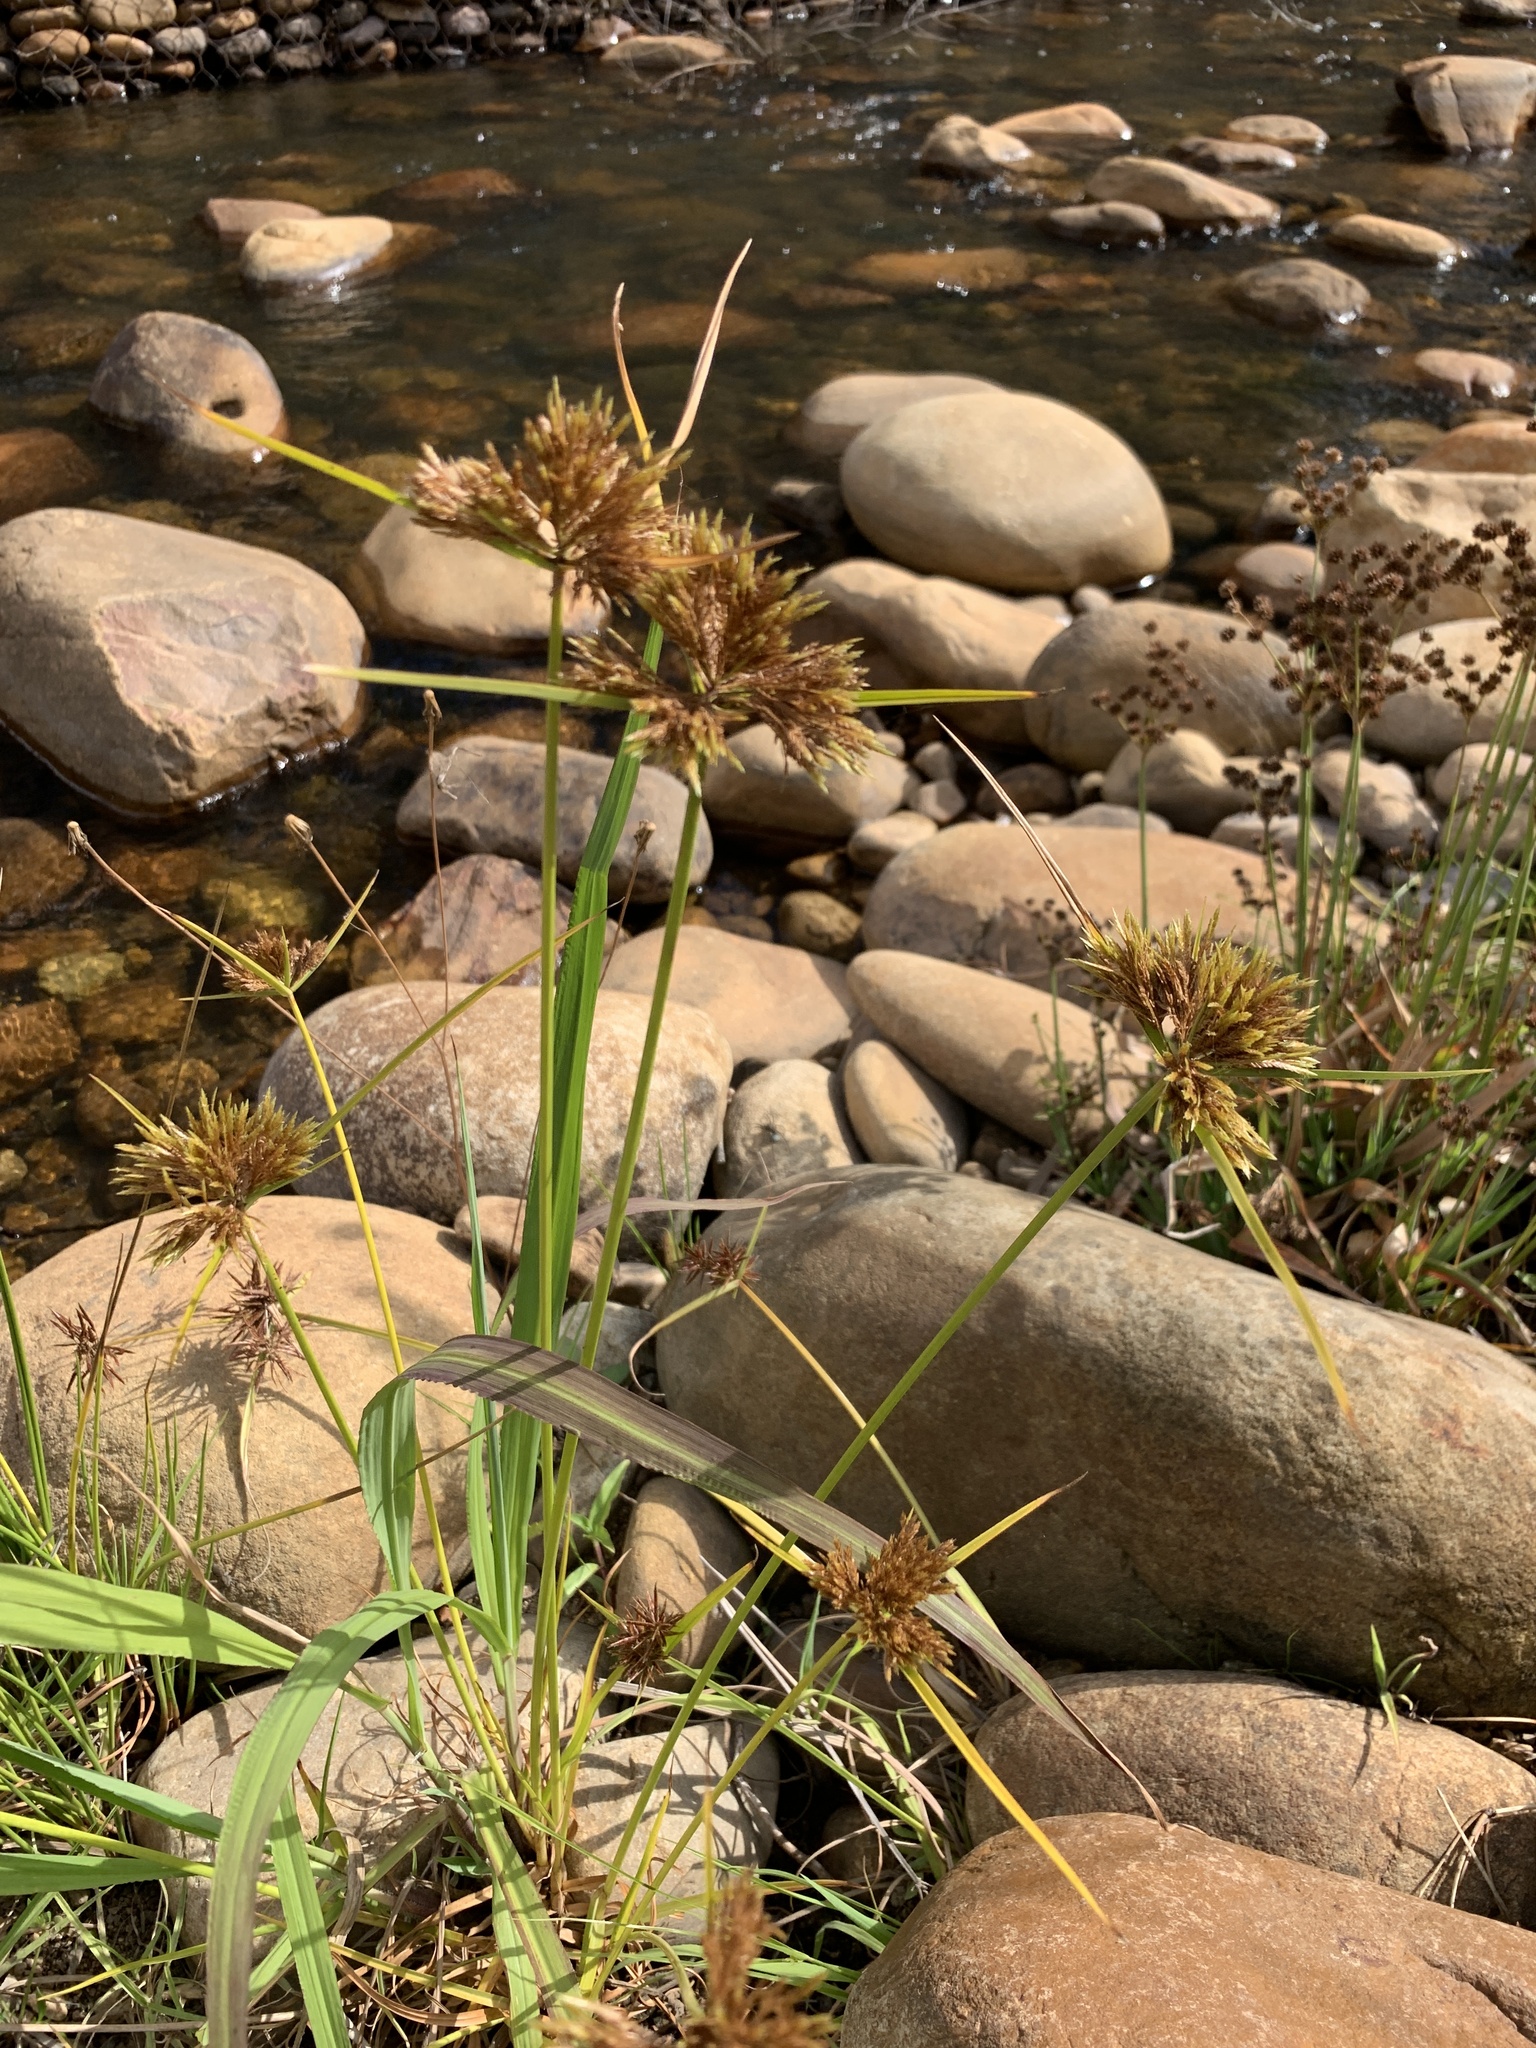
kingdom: Plantae
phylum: Tracheophyta
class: Liliopsida
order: Poales
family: Cyperaceae
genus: Cyperus
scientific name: Cyperus polystachyos
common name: Bunchy flat sedge
